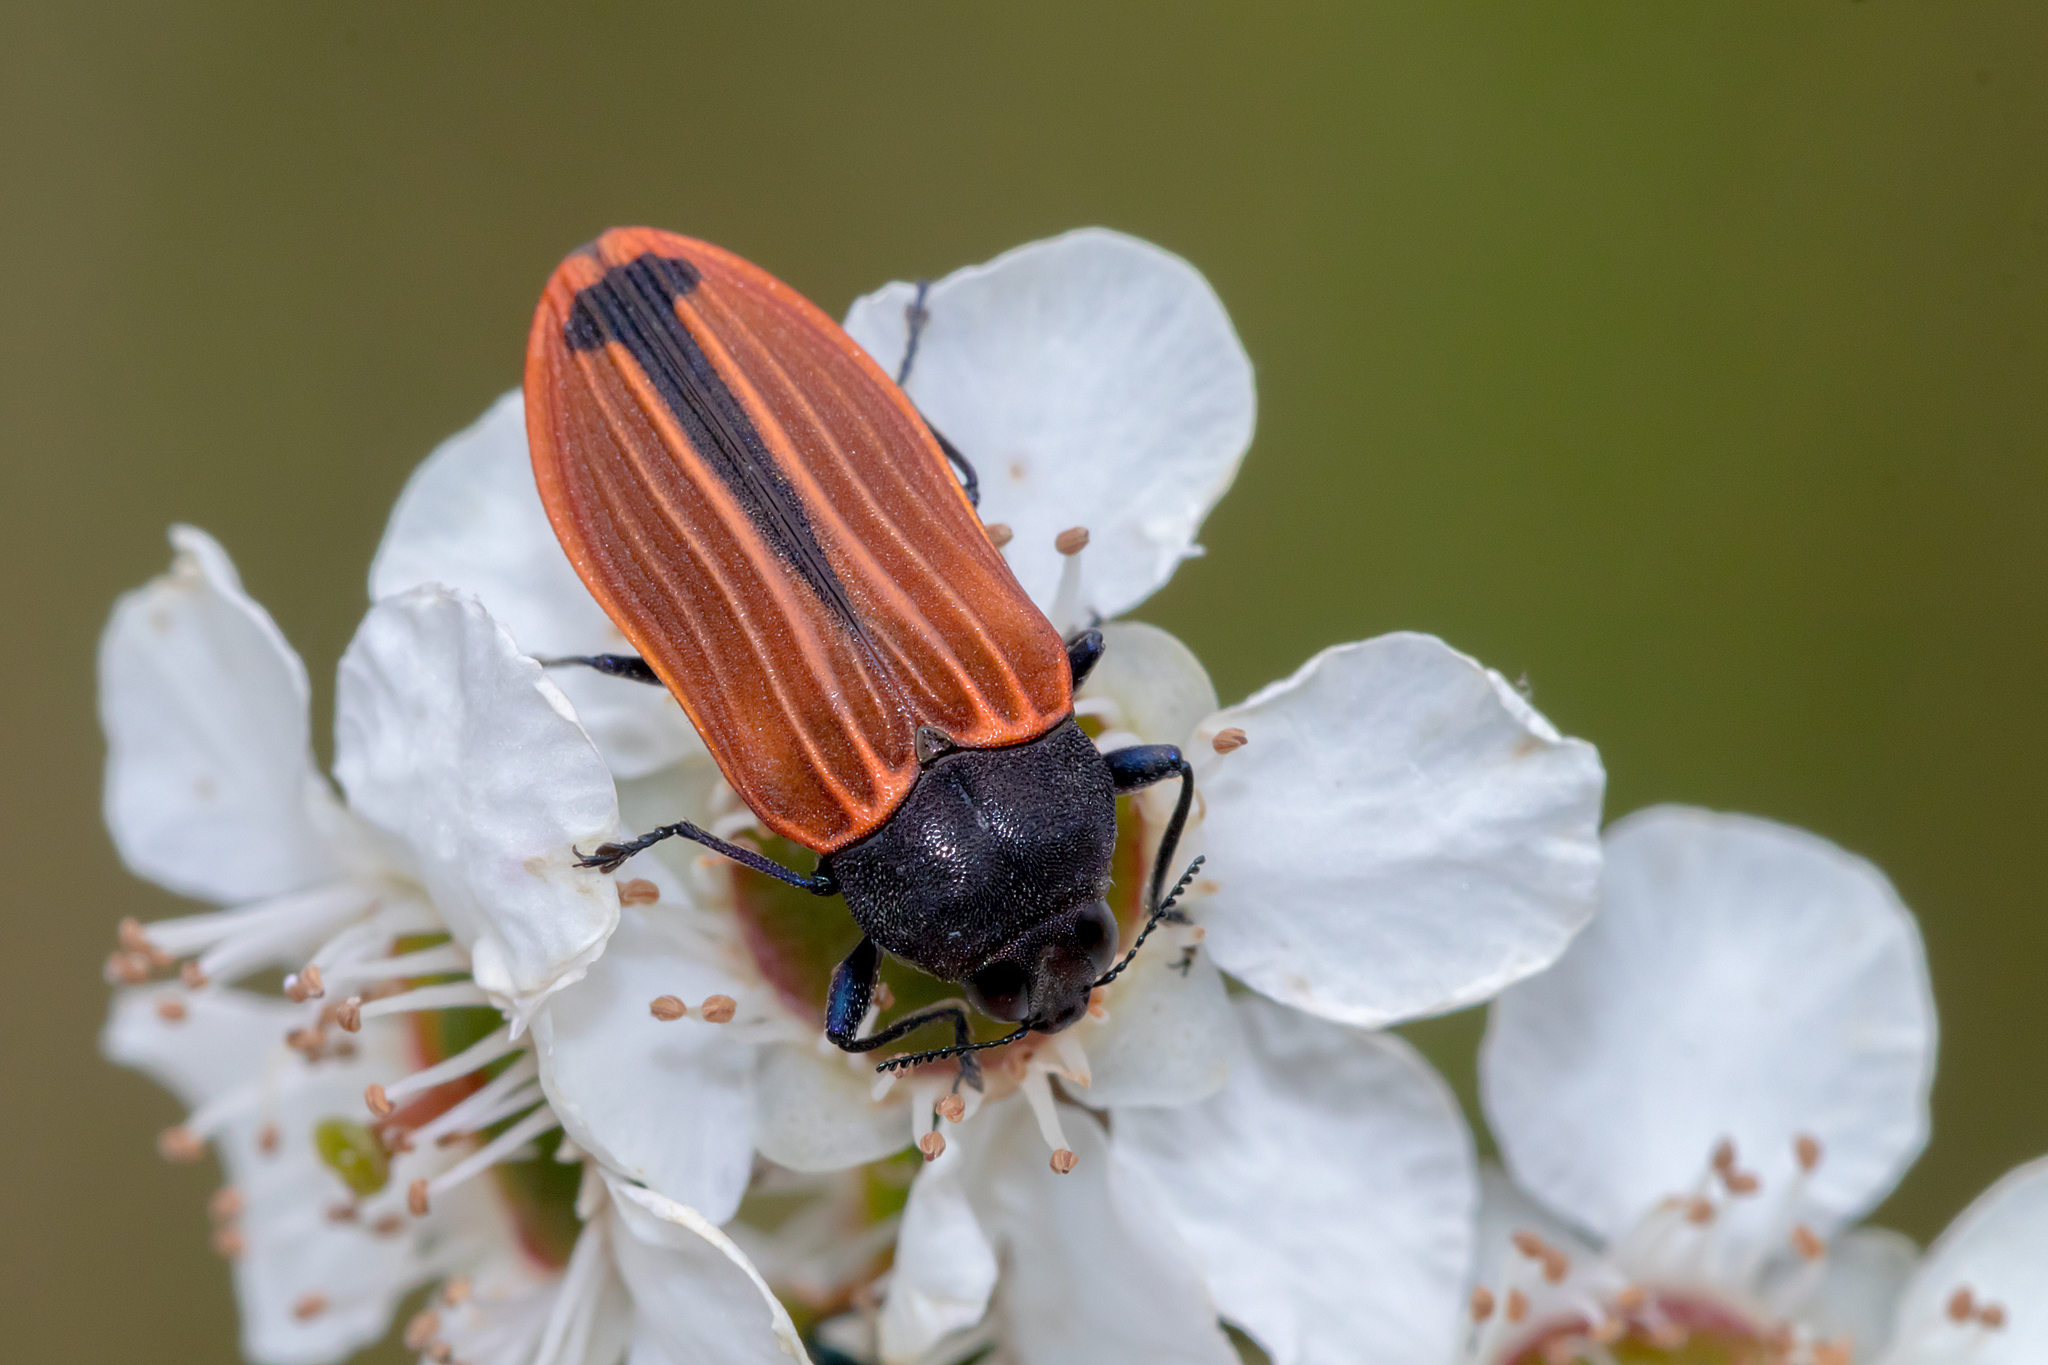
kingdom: Animalia
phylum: Arthropoda
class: Insecta
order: Coleoptera
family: Buprestidae
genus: Castiarina
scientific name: Castiarina erythroptera
